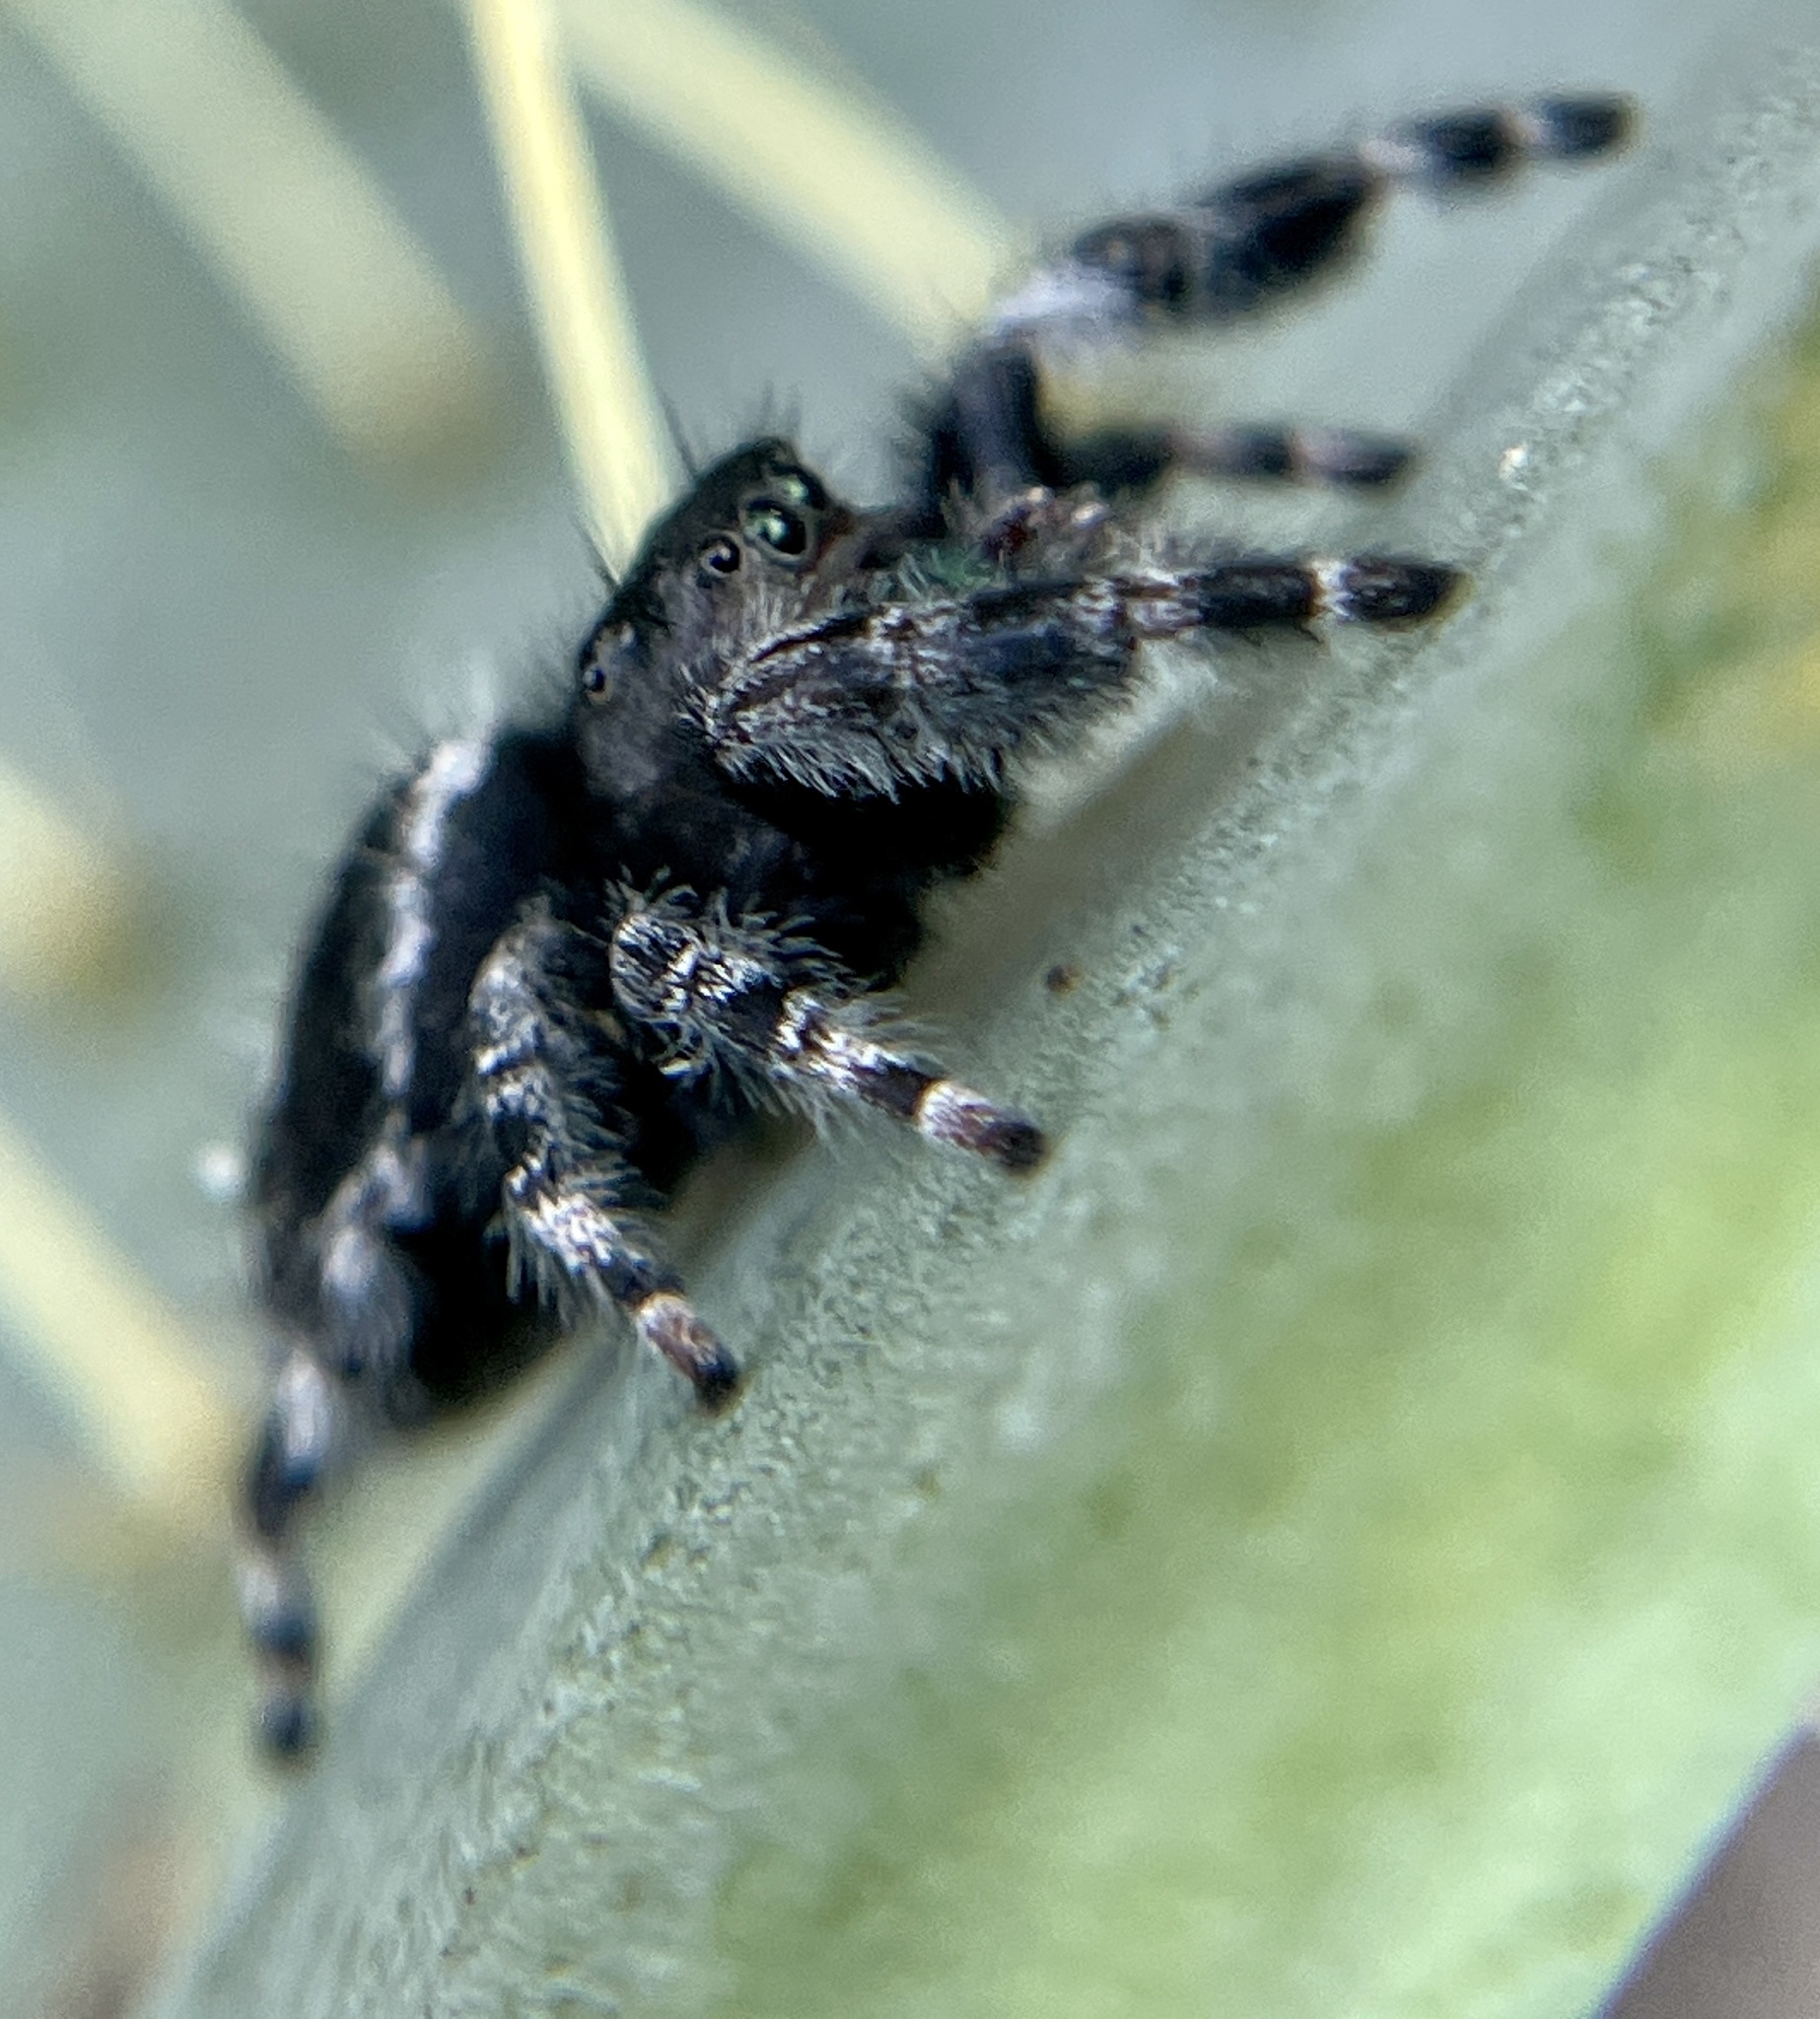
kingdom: Animalia
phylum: Arthropoda
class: Arachnida
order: Araneae
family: Salticidae
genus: Phidippus
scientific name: Phidippus audax
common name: Bold jumper
